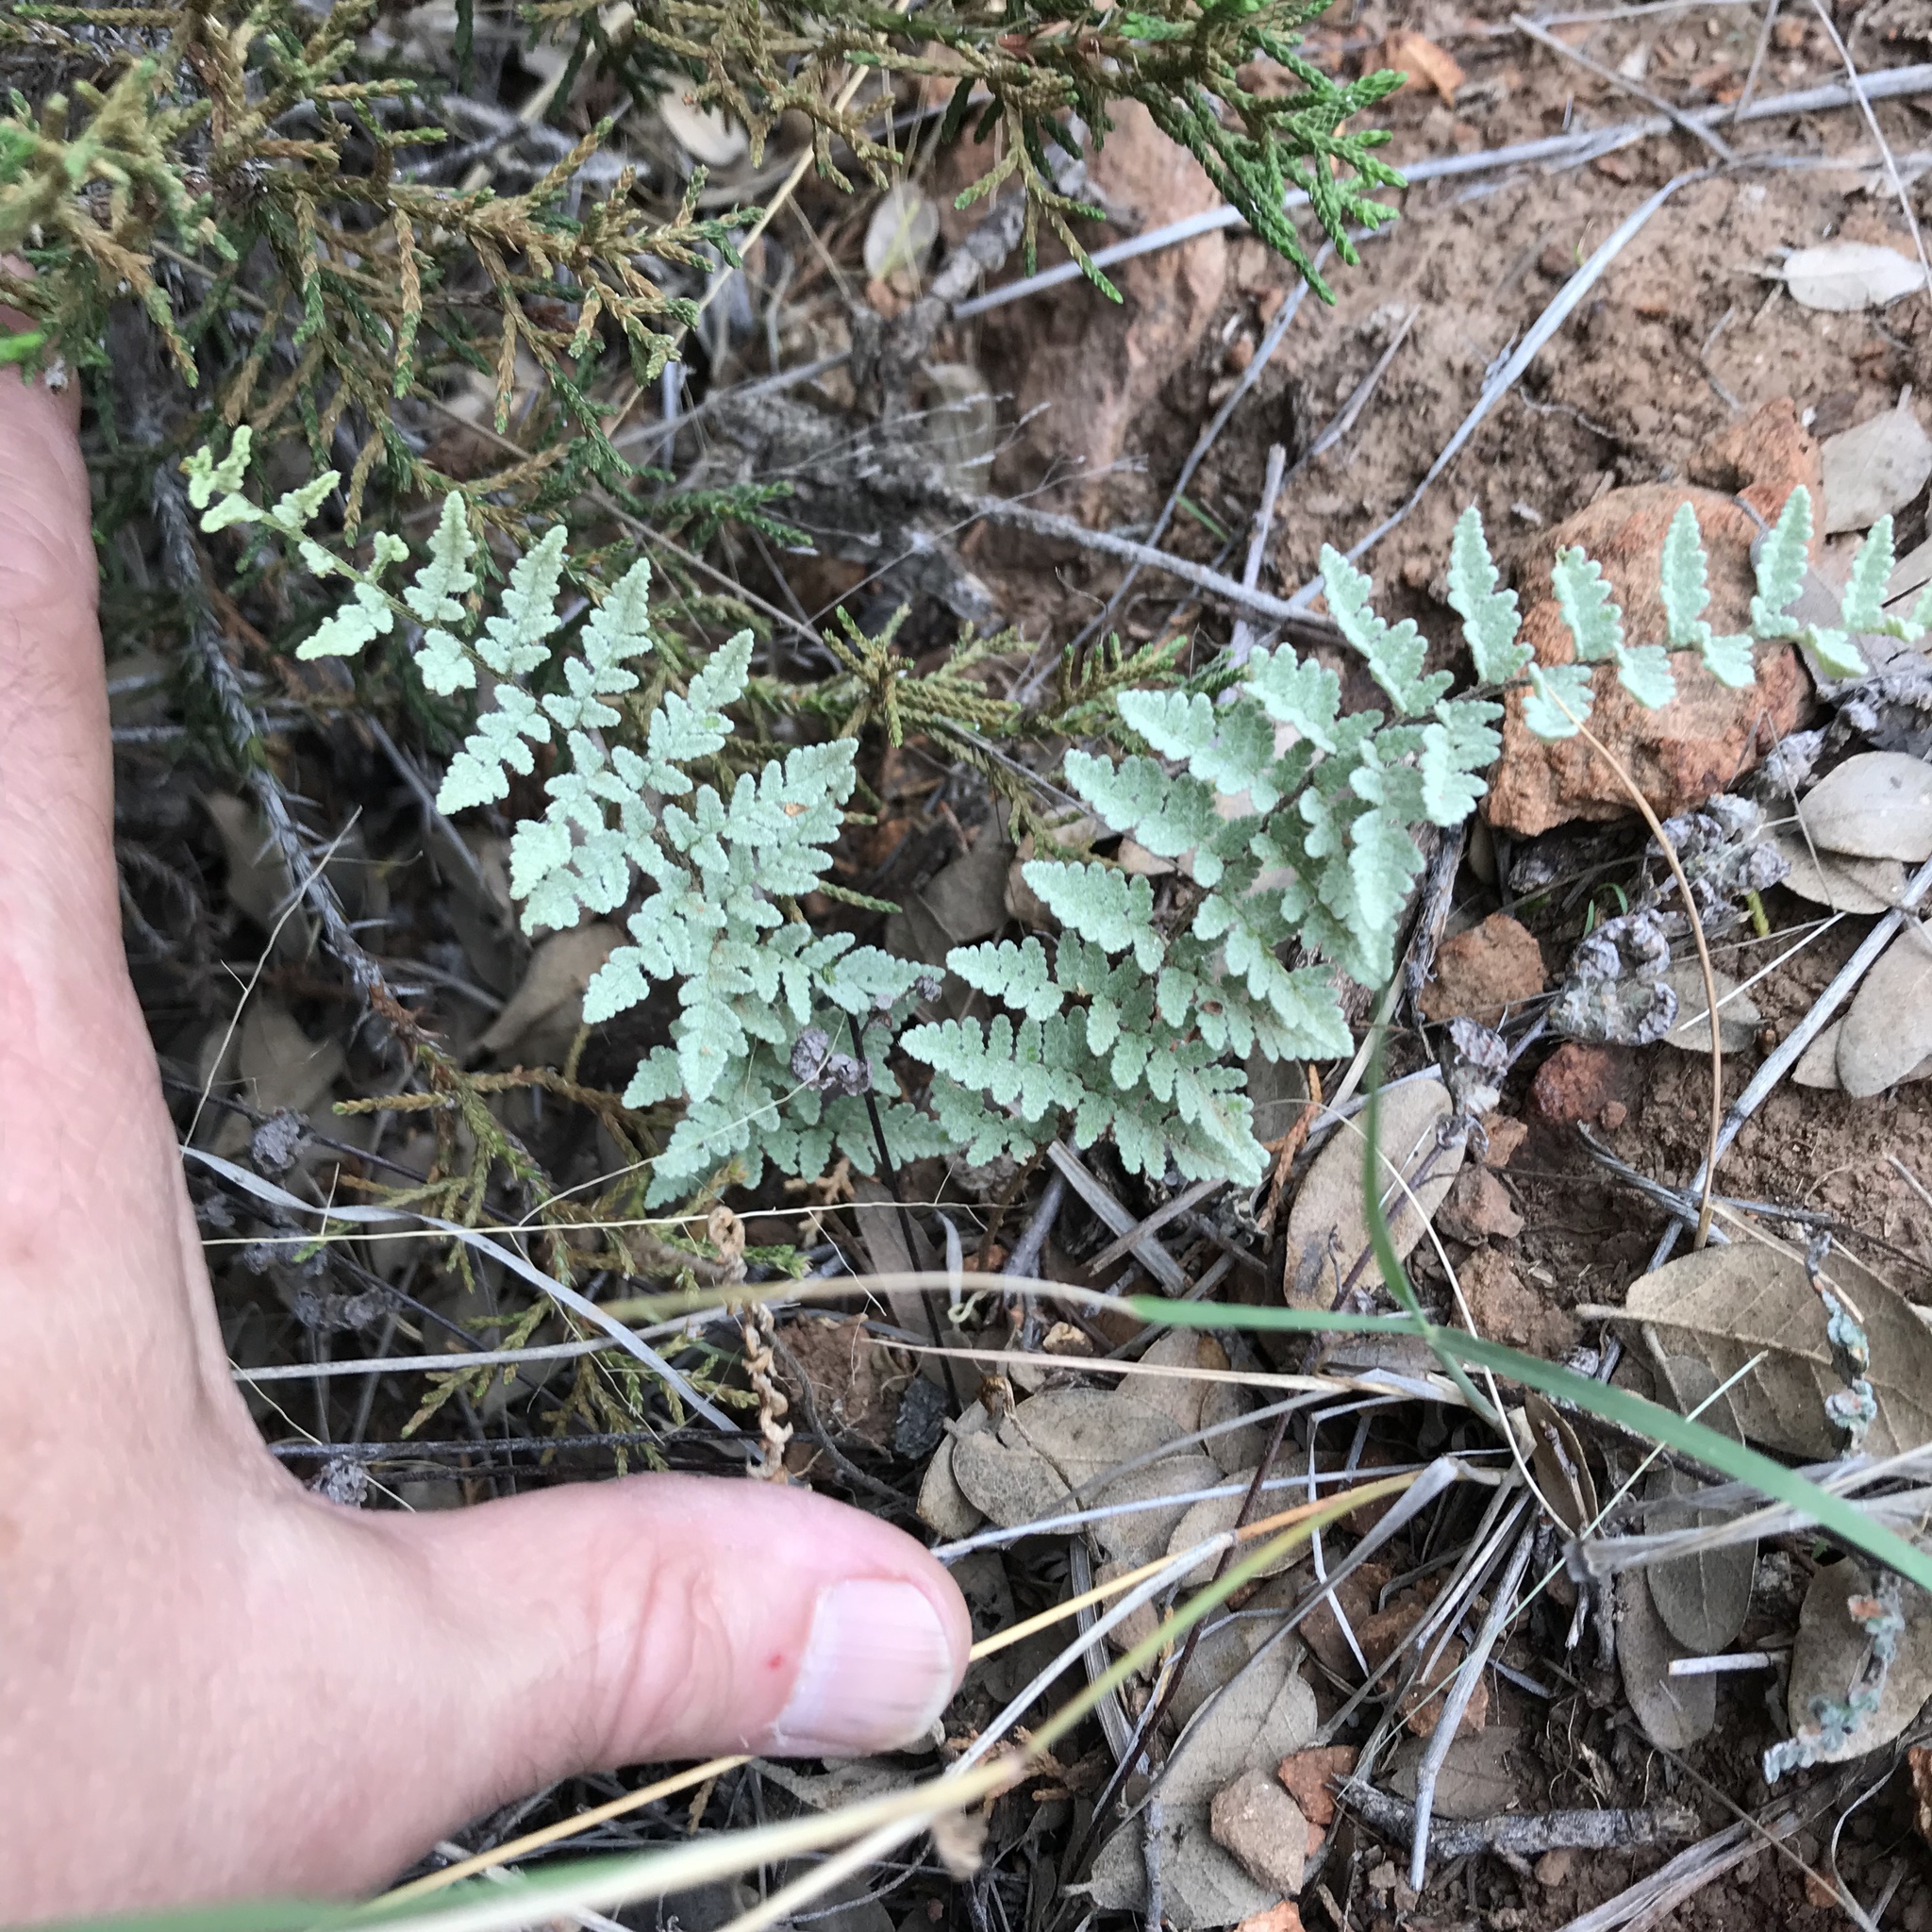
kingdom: Plantae
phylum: Tracheophyta
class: Polypodiopsida
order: Polypodiales
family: Pteridaceae
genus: Myriopteris
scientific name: Myriopteris rufa
